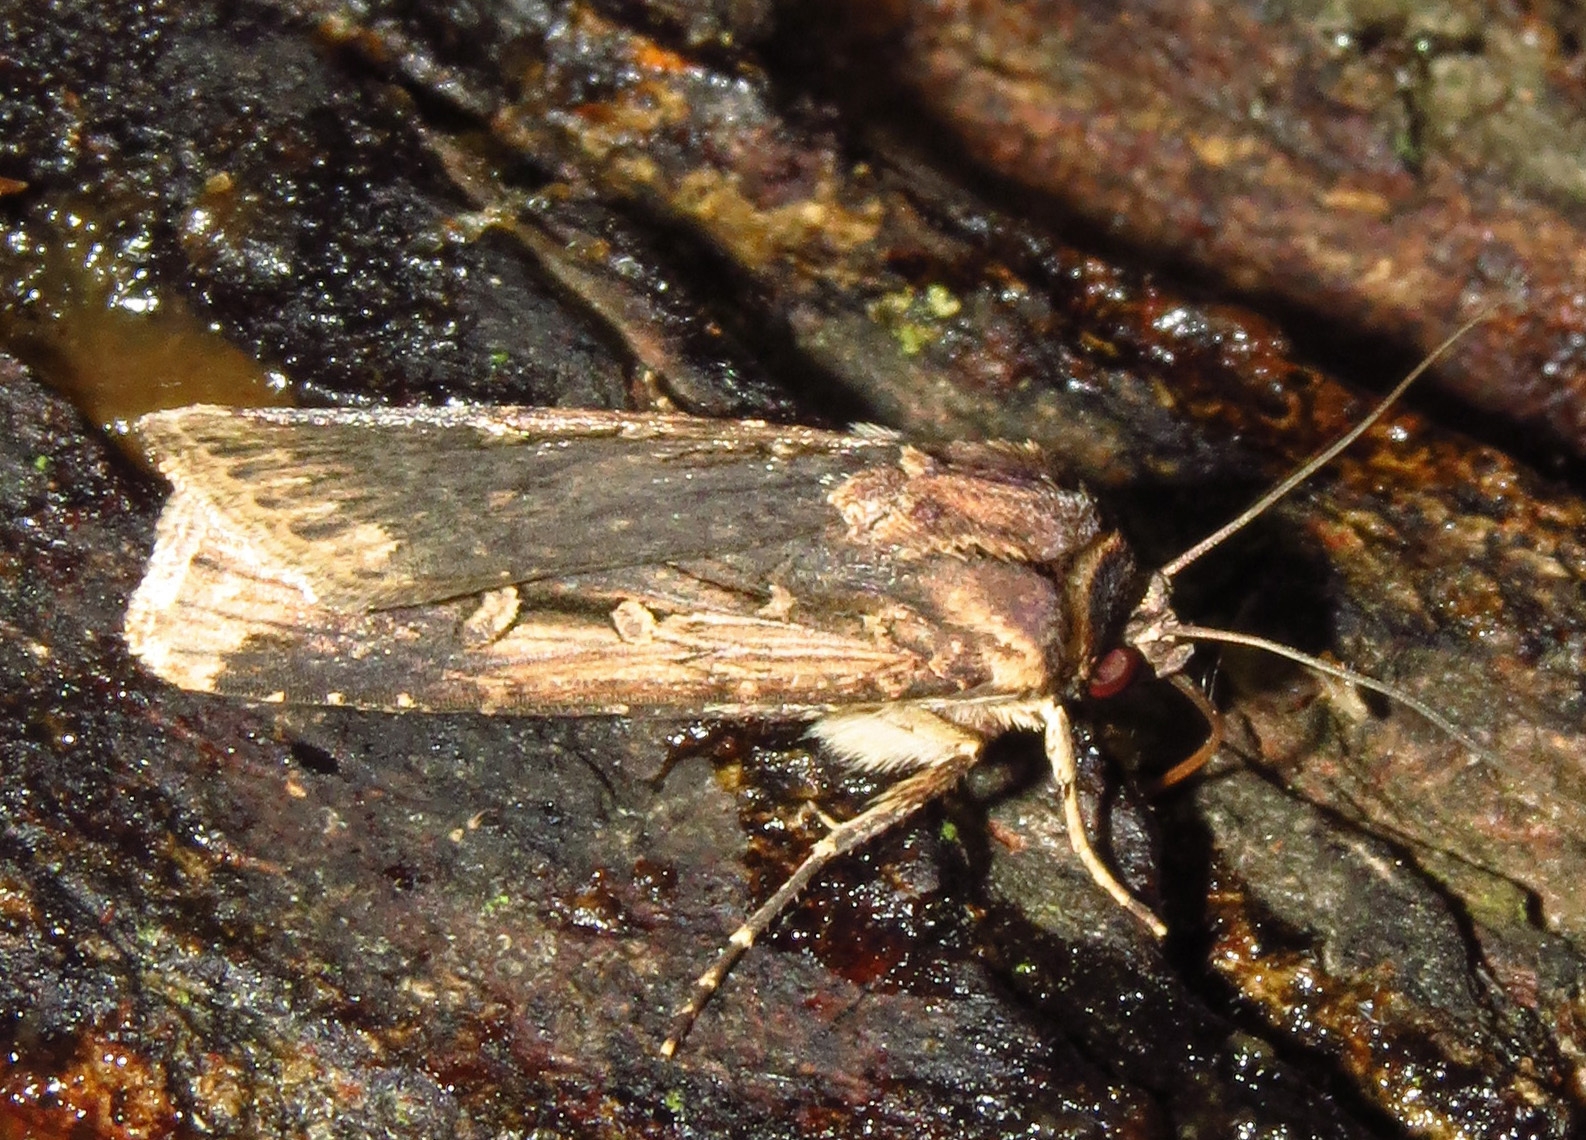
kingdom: Animalia
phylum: Arthropoda
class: Insecta
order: Lepidoptera
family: Noctuidae
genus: Feltia
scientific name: Feltia subterranea
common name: Granulate cutworm
